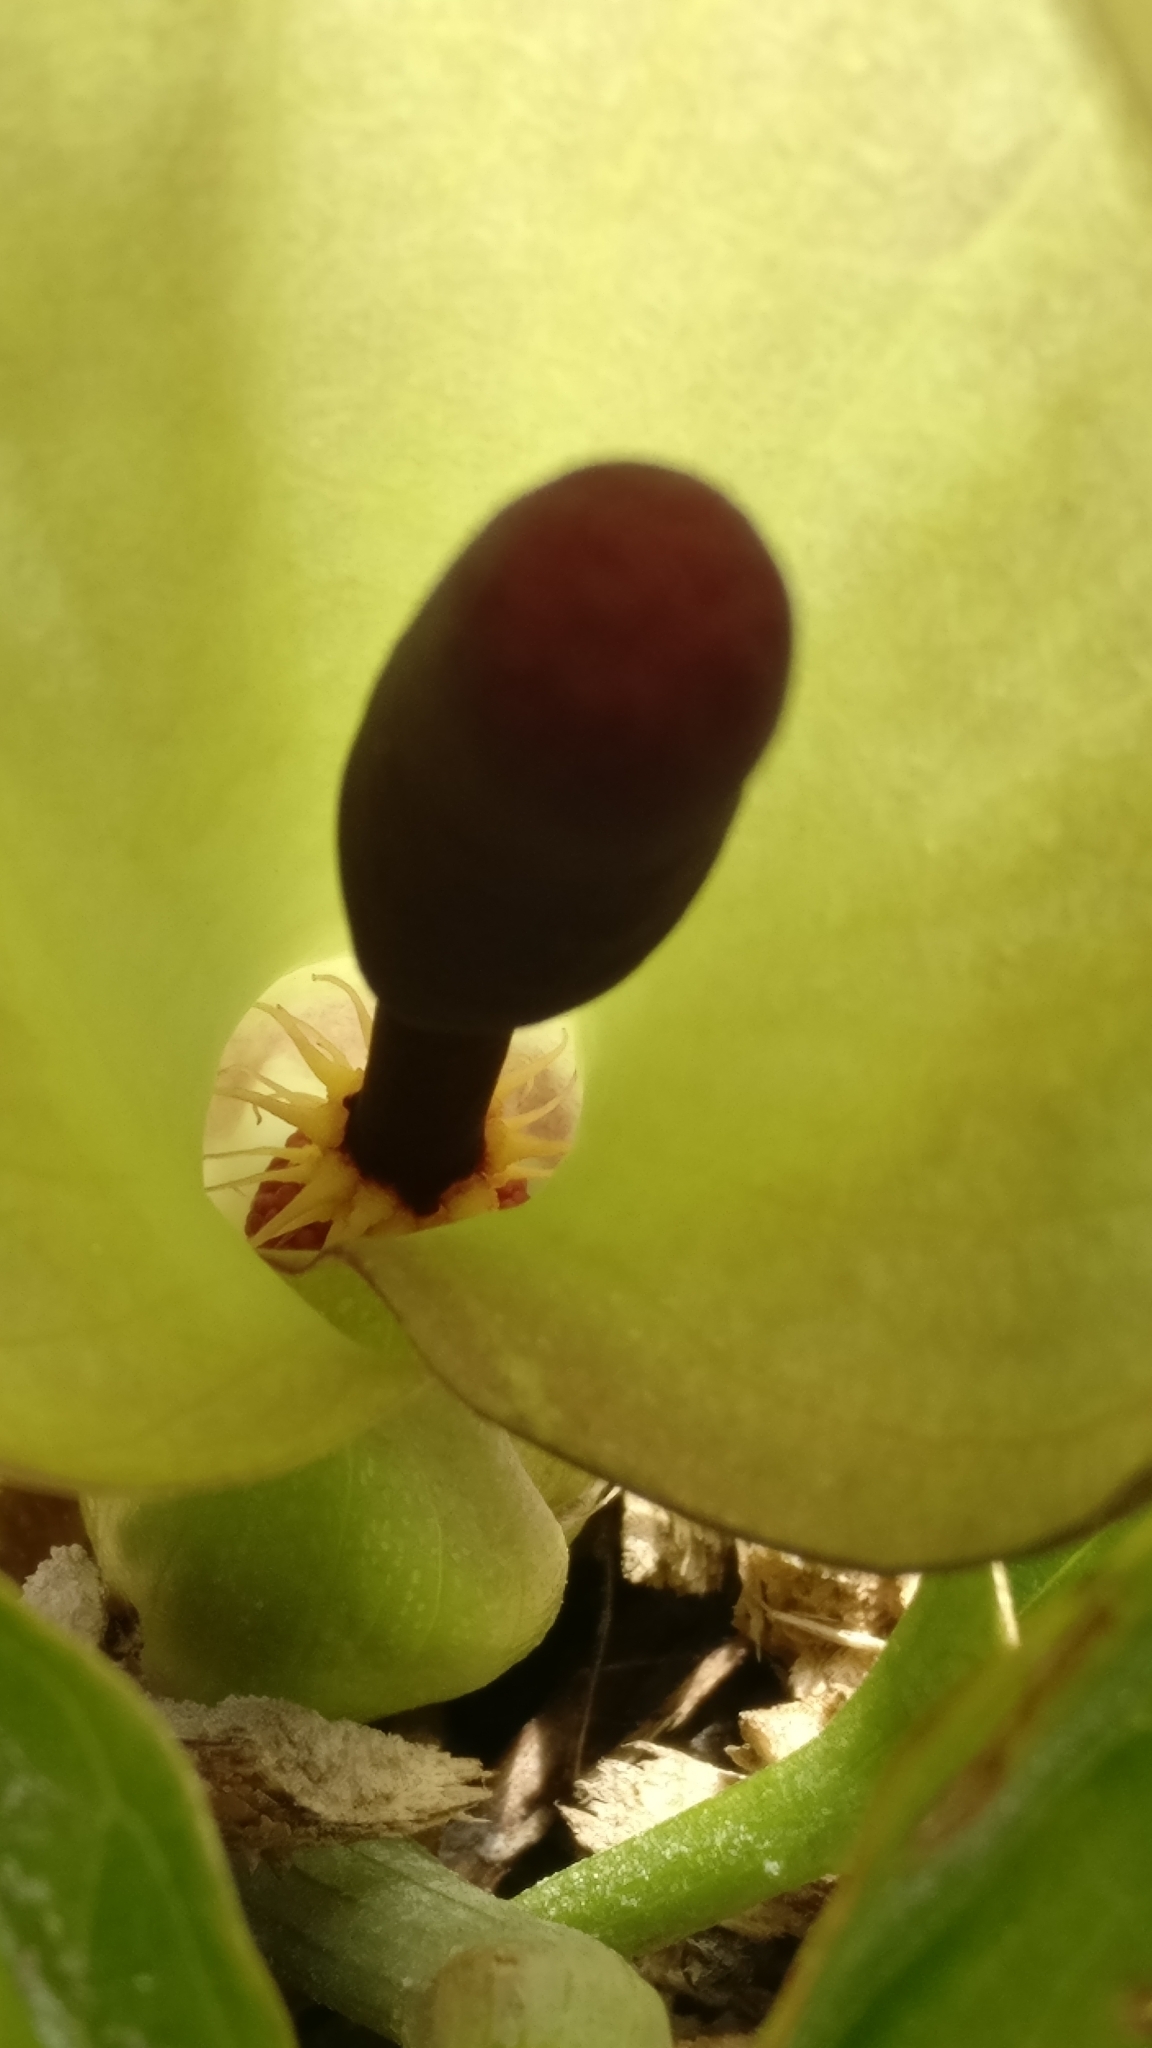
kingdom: Plantae
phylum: Tracheophyta
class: Liliopsida
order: Alismatales
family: Araceae
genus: Arum
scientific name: Arum maculatum
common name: Lords-and-ladies
